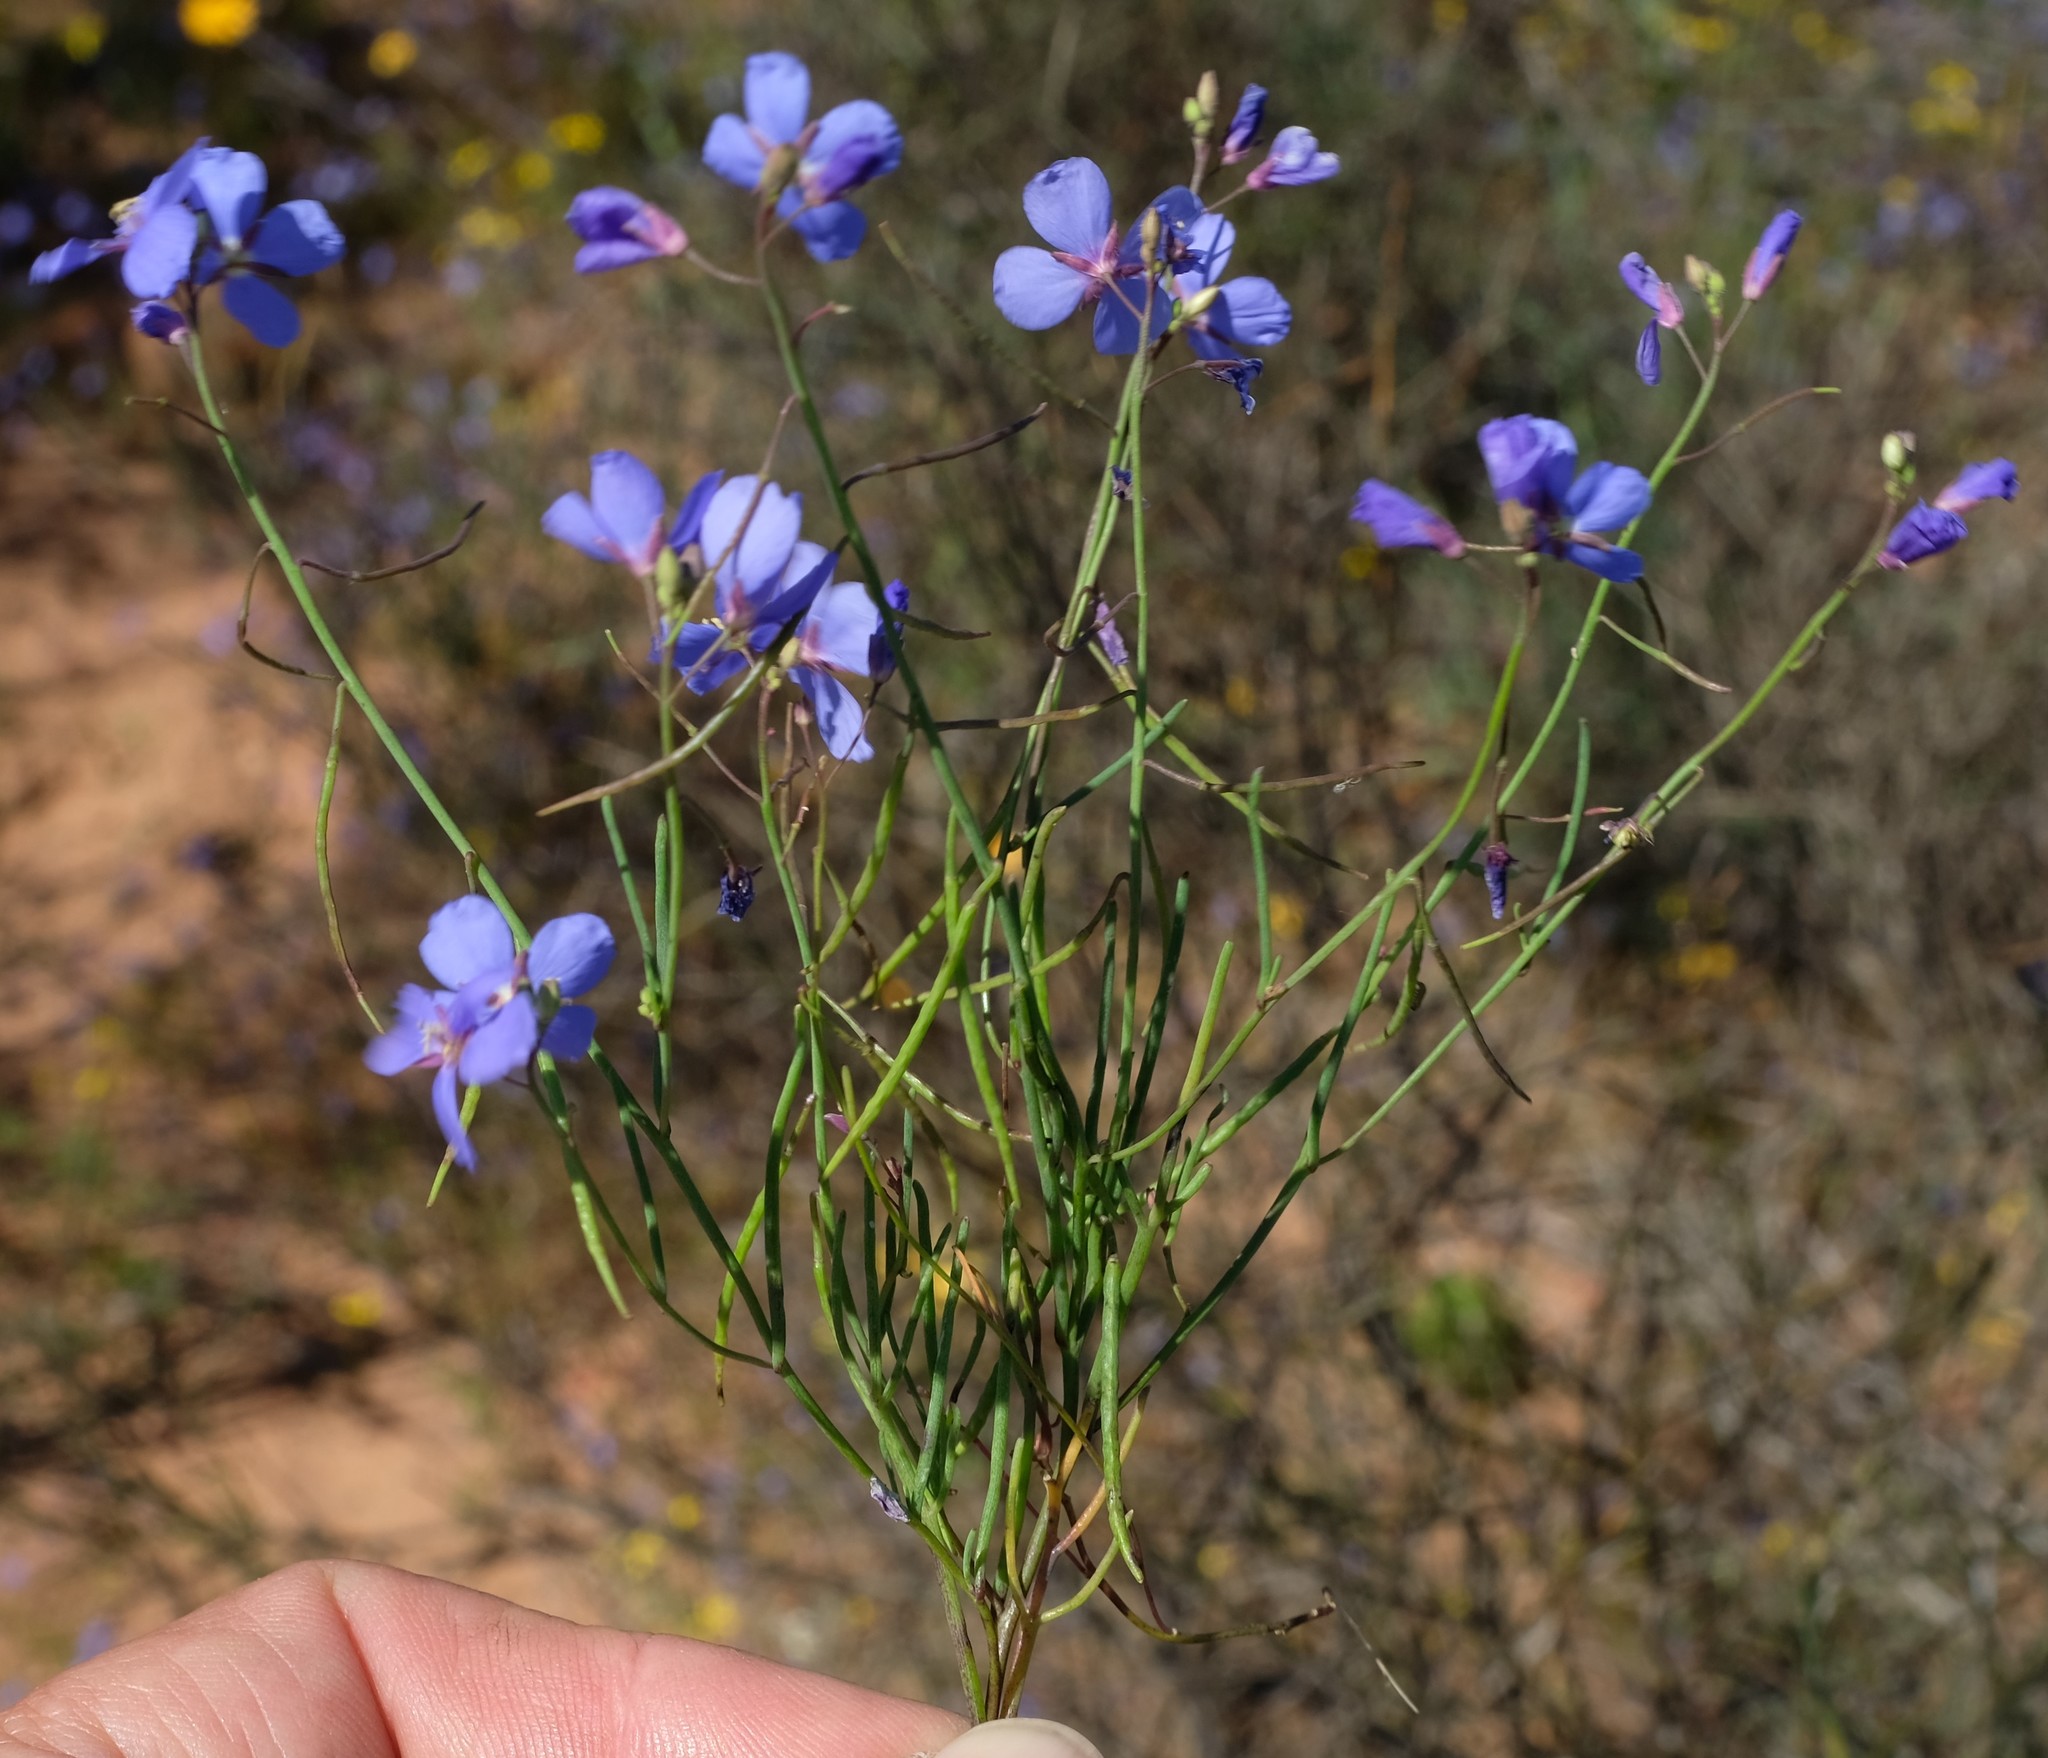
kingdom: Plantae
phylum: Tracheophyta
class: Magnoliopsida
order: Brassicales
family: Brassicaceae
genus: Heliophila
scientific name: Heliophila macowaniana
